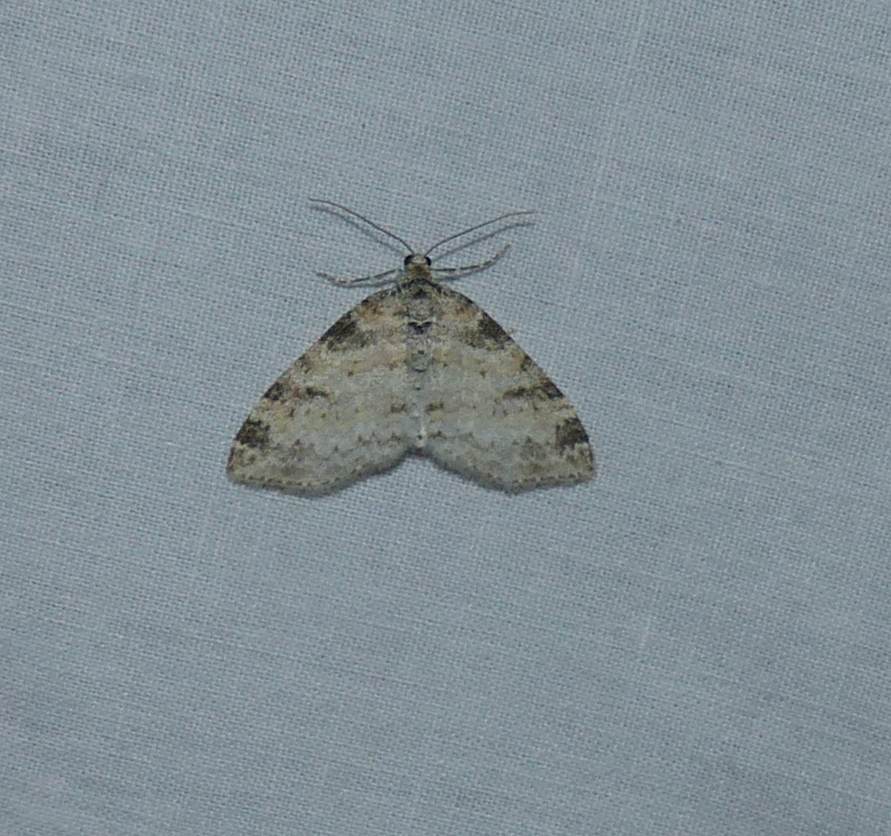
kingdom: Animalia
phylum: Arthropoda
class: Insecta
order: Lepidoptera
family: Geometridae
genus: Lobophora
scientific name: Lobophora nivigerata
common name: Powdered bigwing
